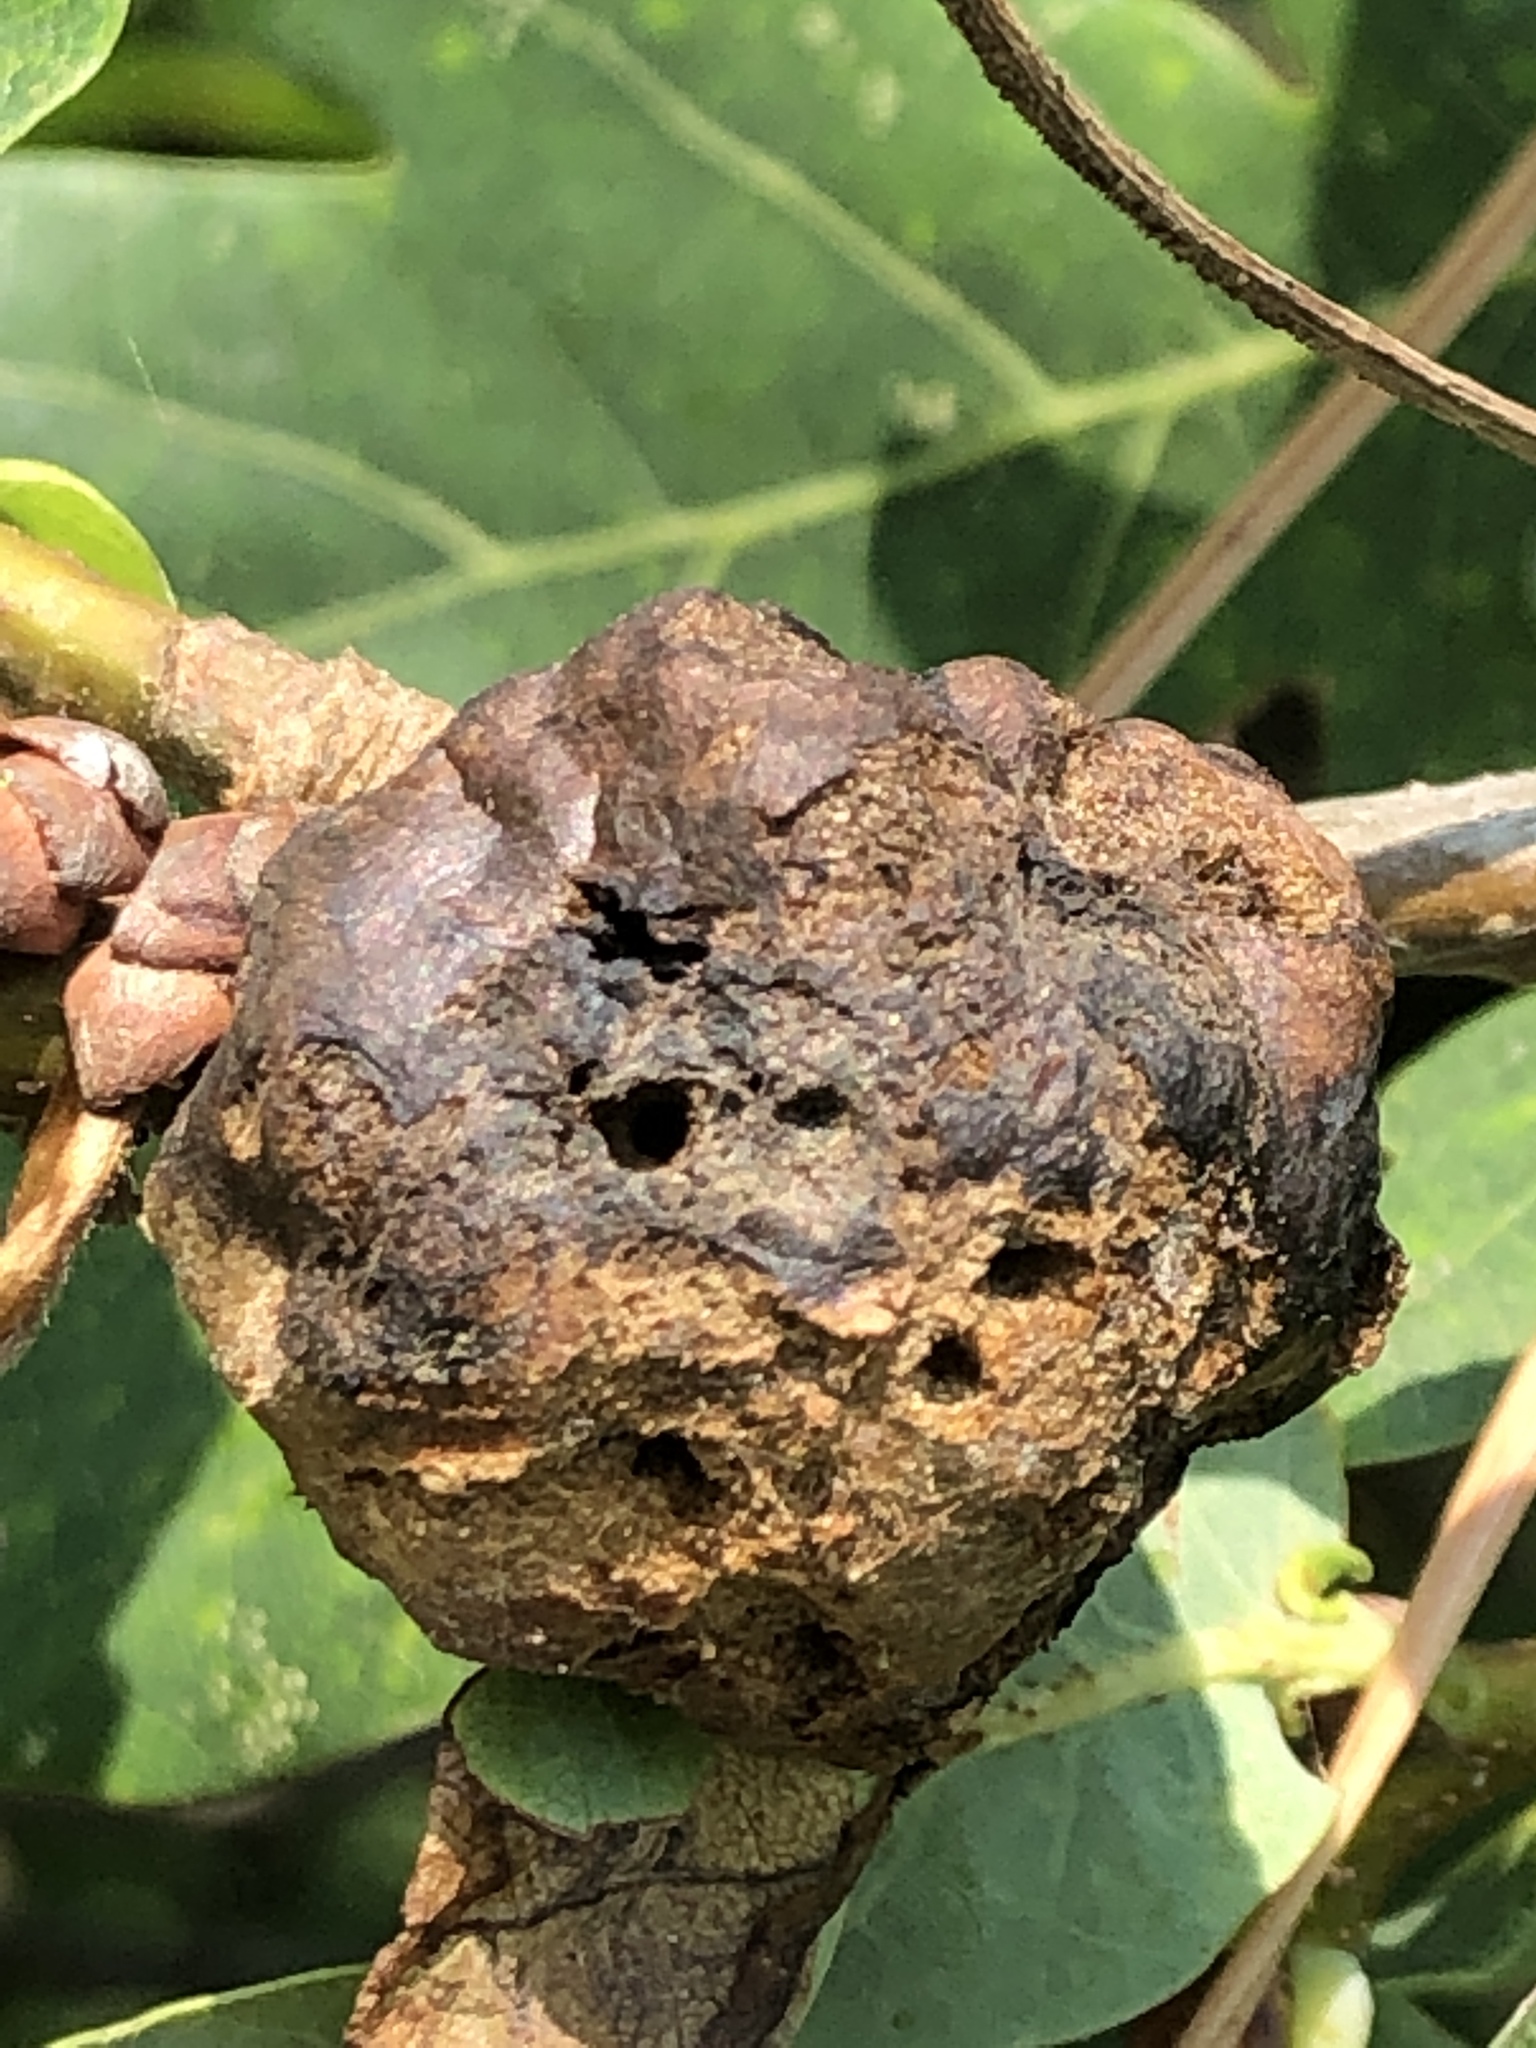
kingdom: Animalia
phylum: Arthropoda
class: Insecta
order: Hymenoptera
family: Cynipidae
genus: Biorhiza
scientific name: Biorhiza pallida
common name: Oak apple
